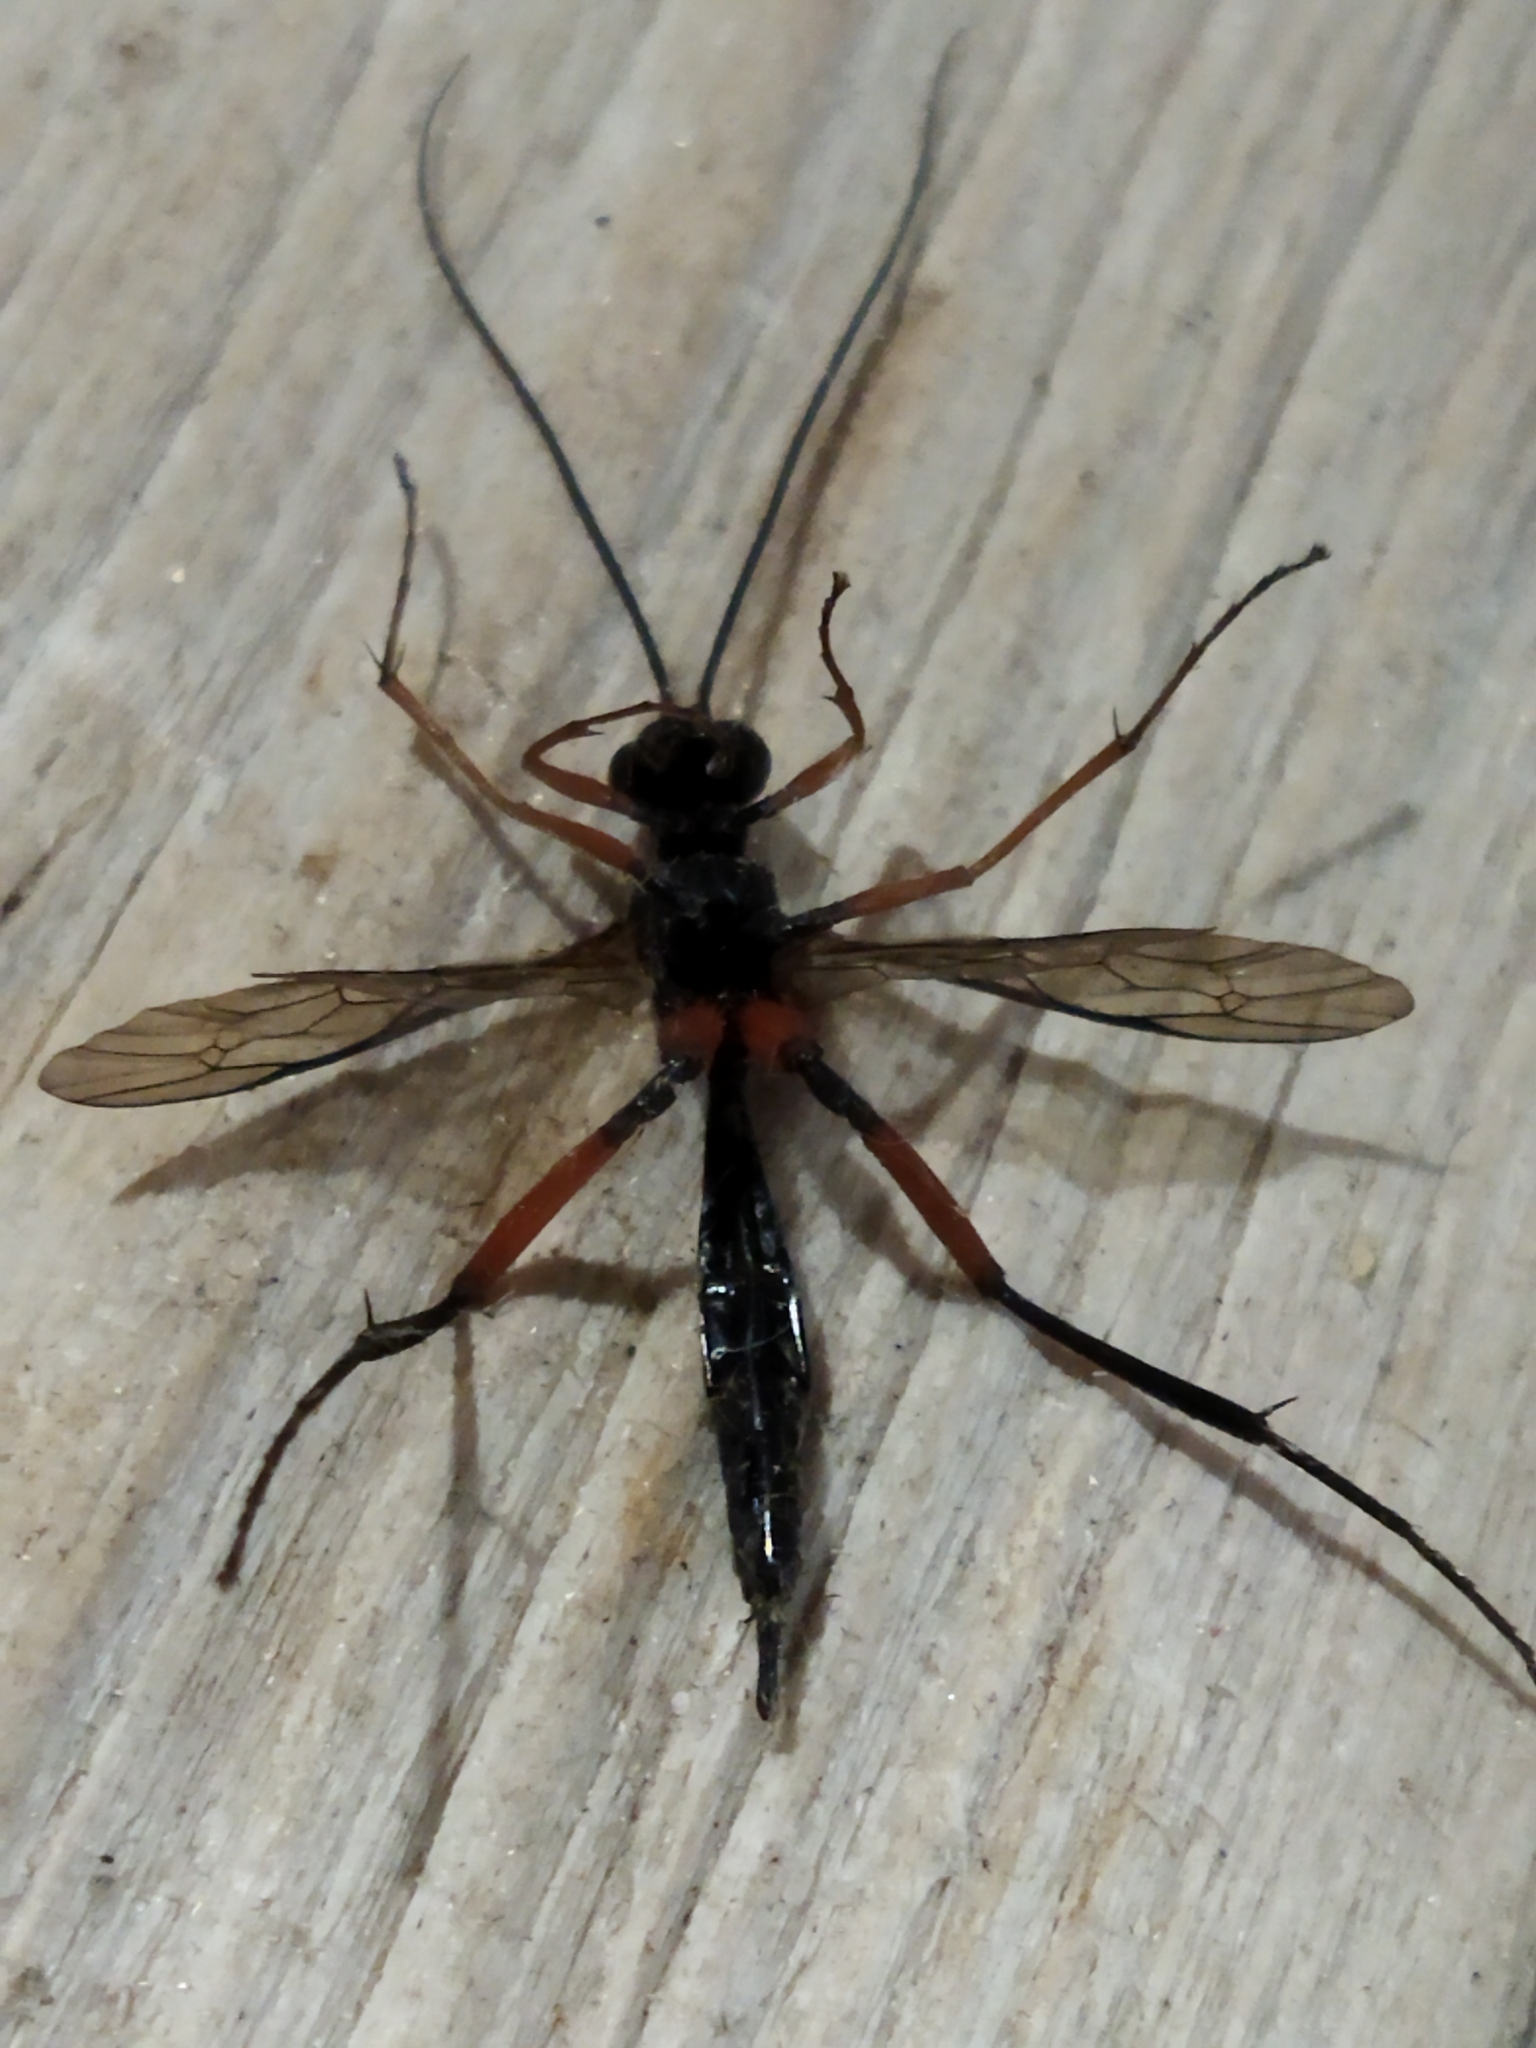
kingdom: Animalia
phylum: Arthropoda
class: Insecta
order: Hymenoptera
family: Ichneumonidae
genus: Exetastes
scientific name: Exetastes calobatus
